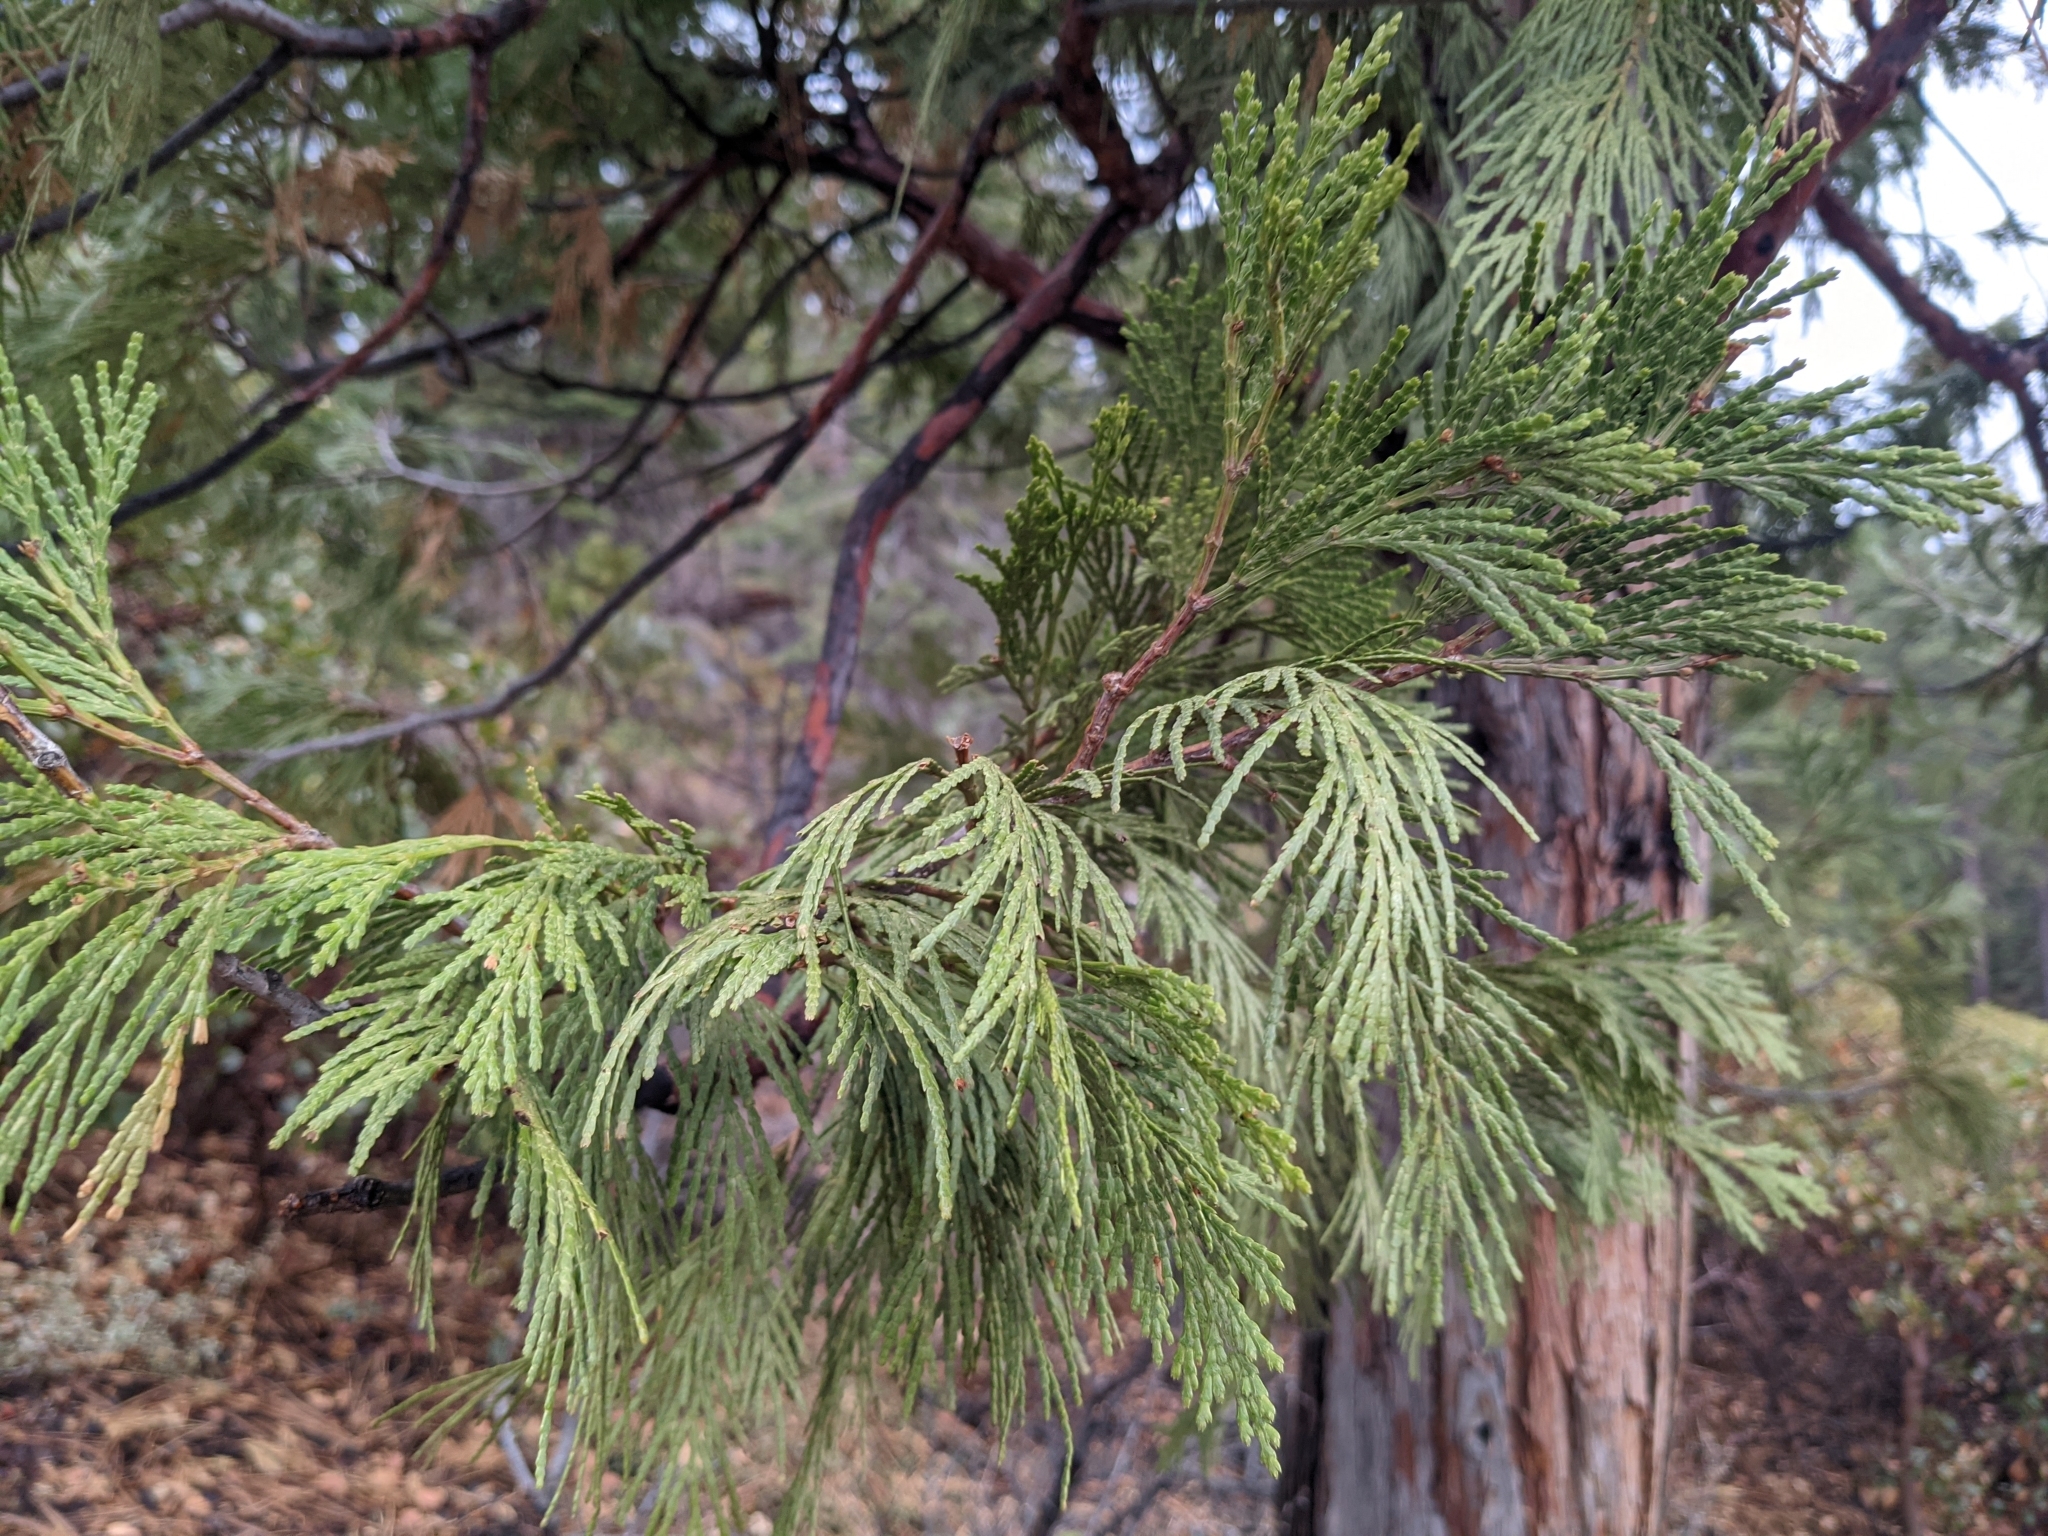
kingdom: Plantae
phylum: Tracheophyta
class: Pinopsida
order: Pinales
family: Cupressaceae
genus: Calocedrus
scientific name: Calocedrus decurrens
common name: Californian incense-cedar
